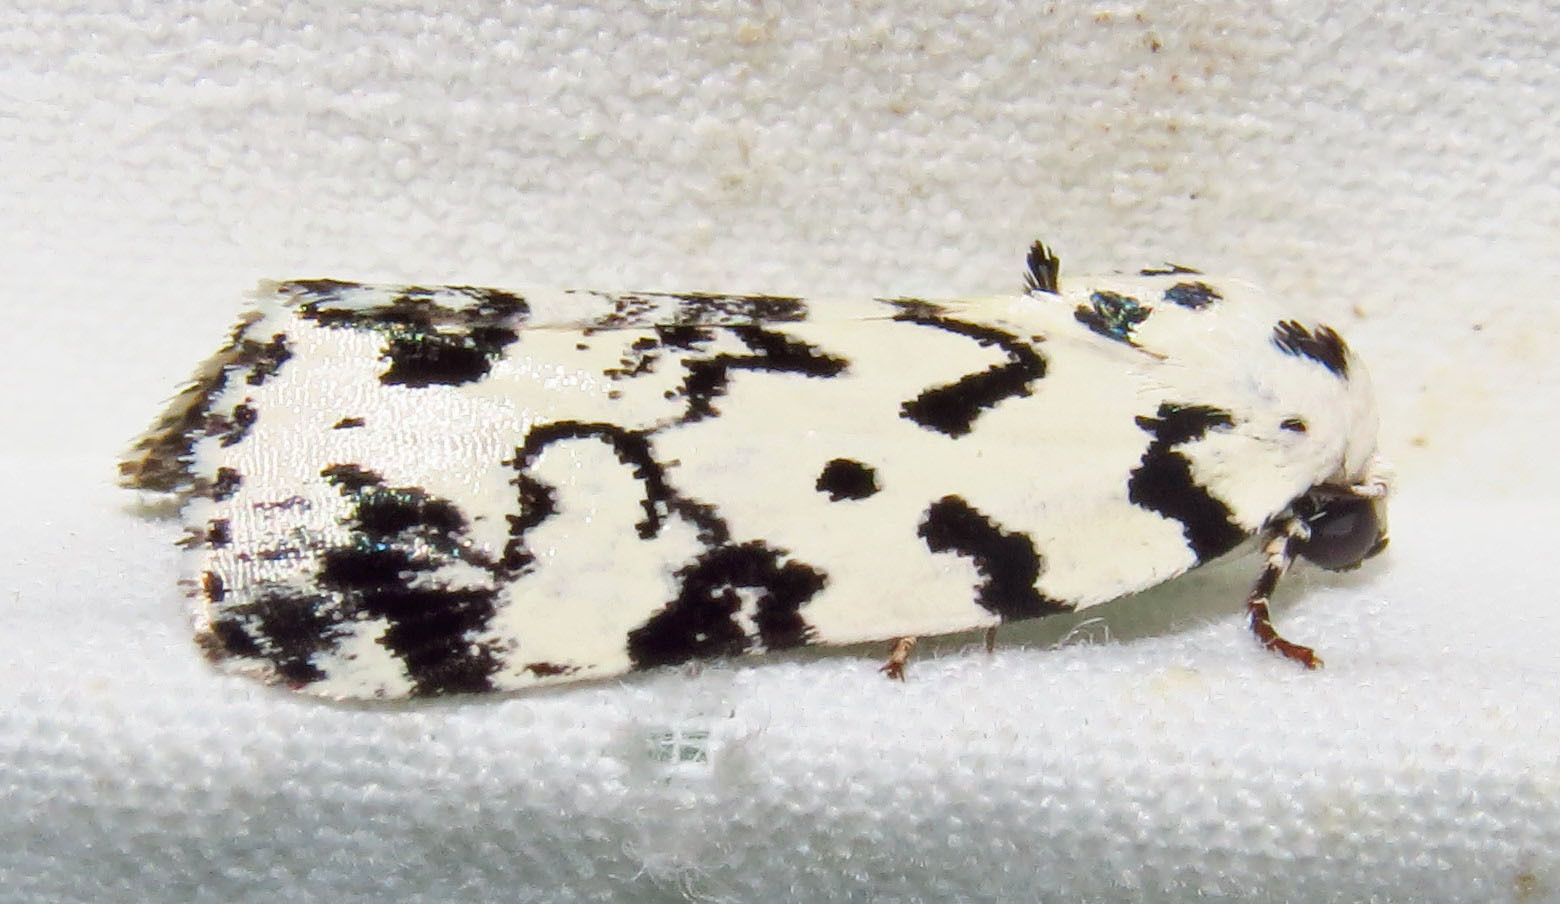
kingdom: Animalia
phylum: Arthropoda
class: Insecta
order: Lepidoptera
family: Noctuidae
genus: Polygrammate
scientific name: Polygrammate hebraeicum
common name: Hebrew moth
